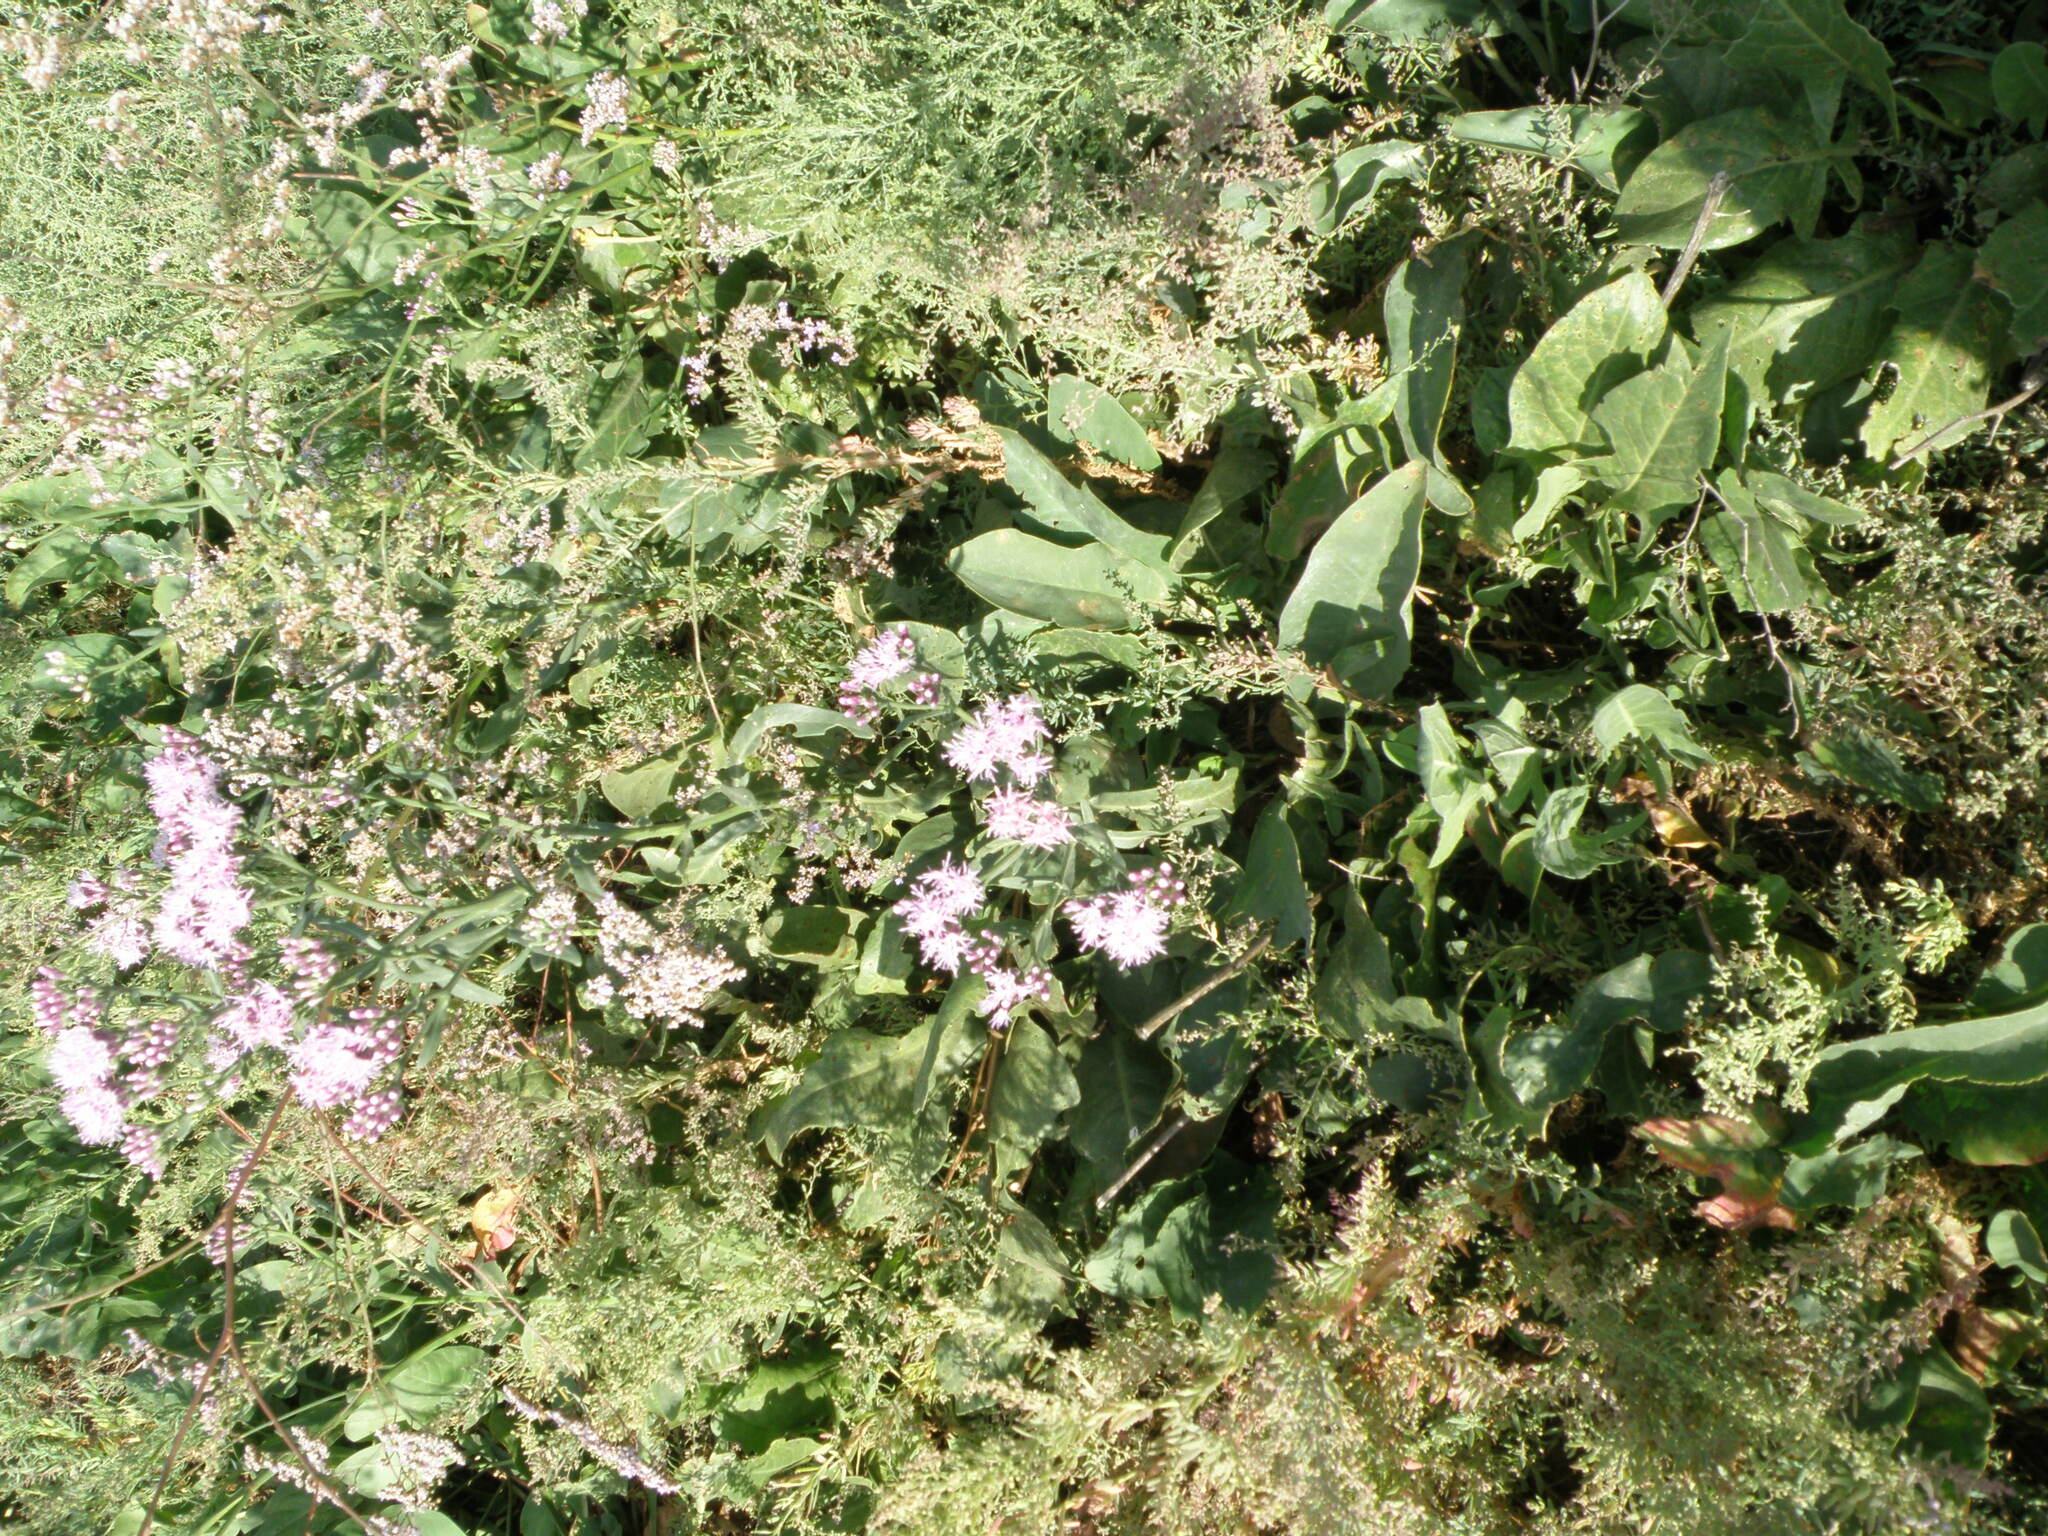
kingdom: Plantae
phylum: Tracheophyta
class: Magnoliopsida
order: Asterales
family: Asteraceae
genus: Saussurea
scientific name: Saussurea salsa
